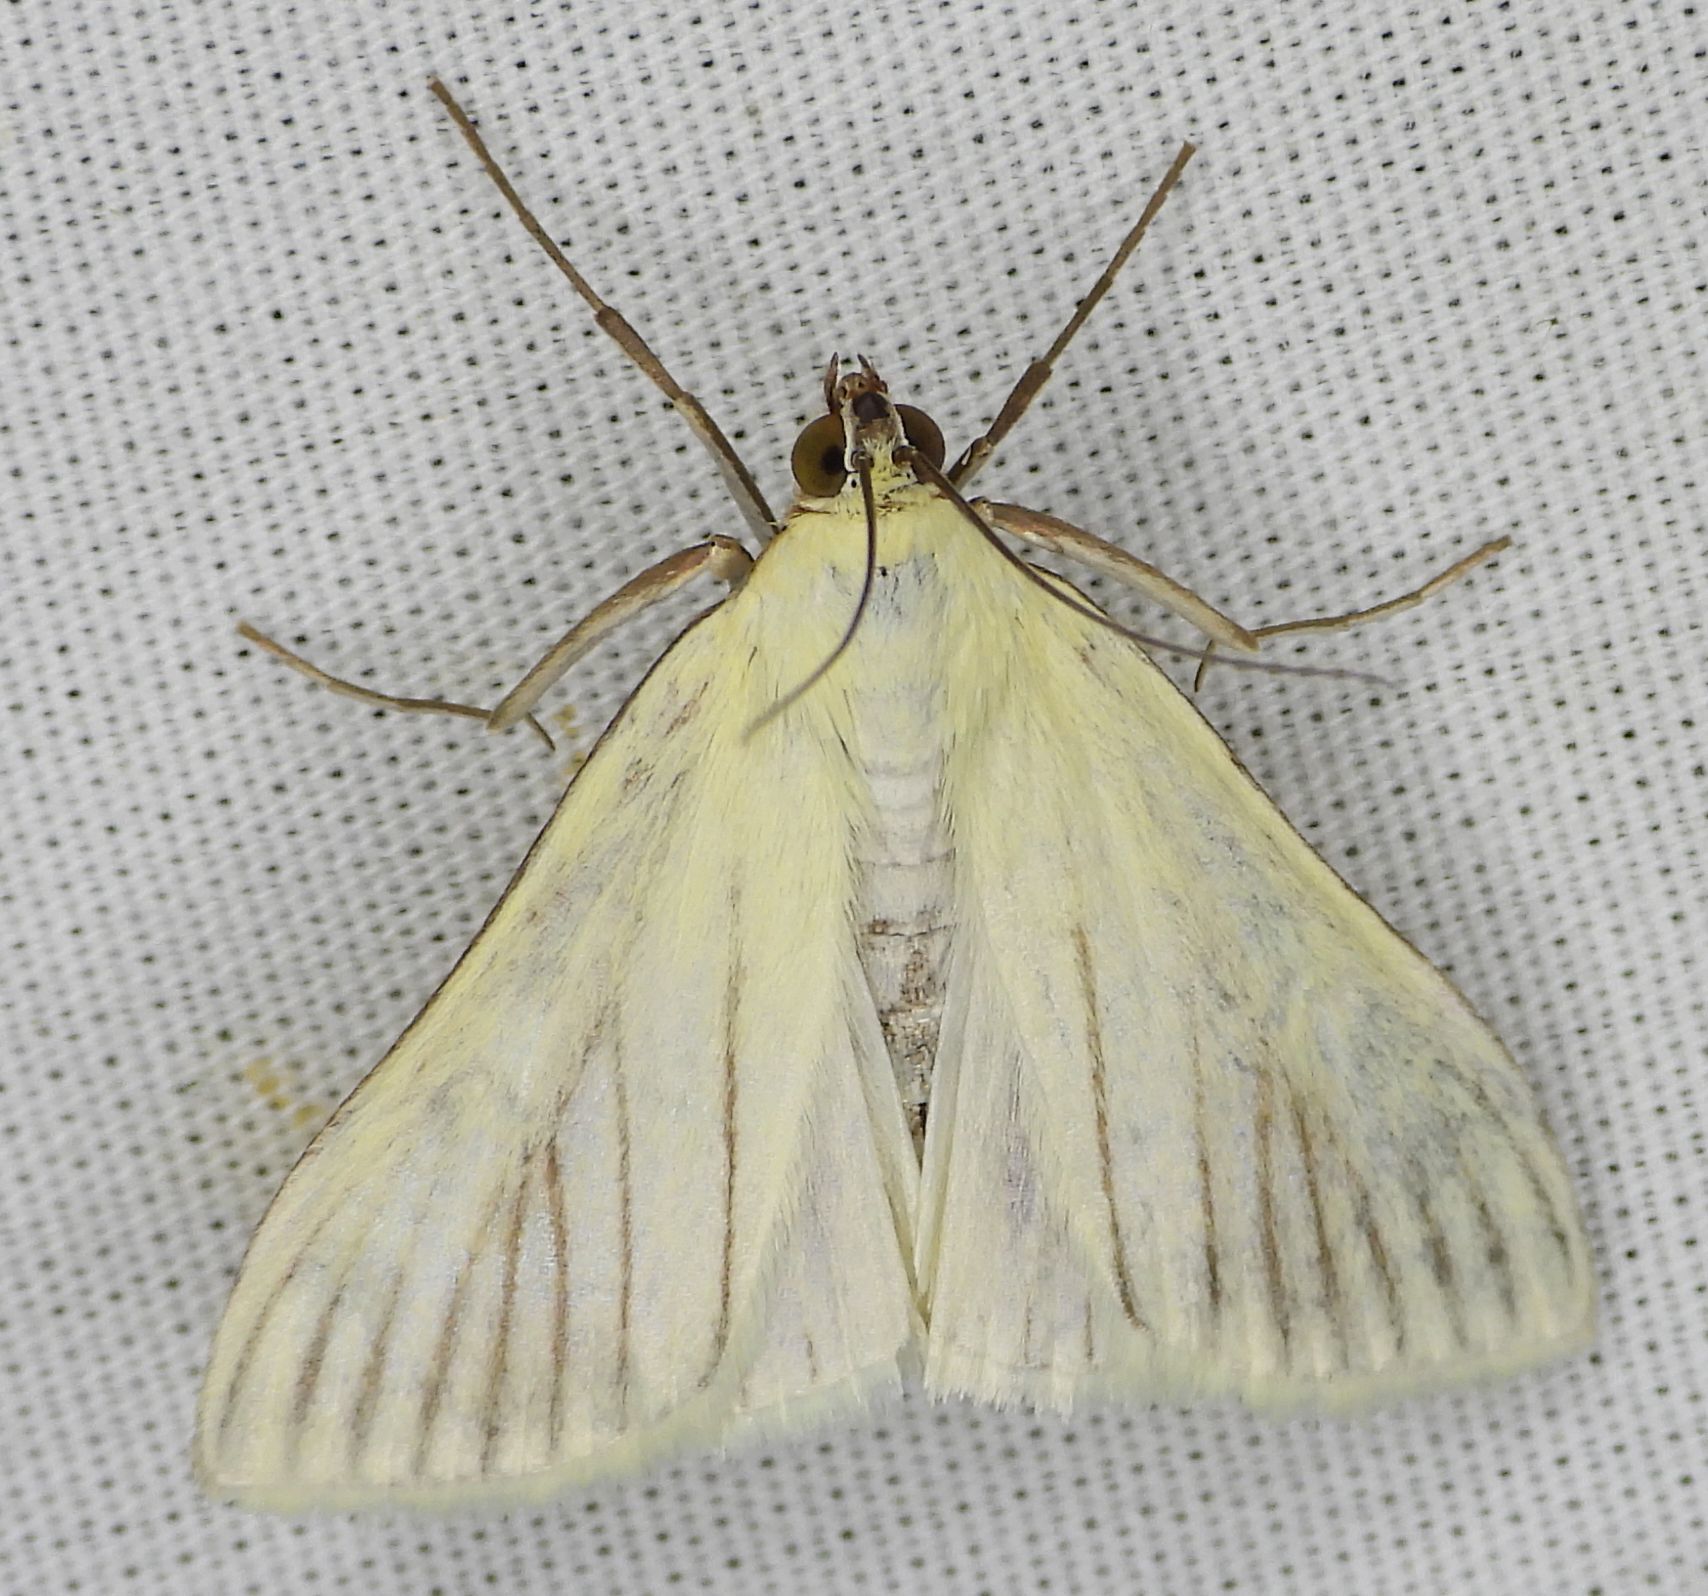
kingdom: Animalia
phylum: Arthropoda
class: Insecta
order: Lepidoptera
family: Crambidae
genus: Sitochroa
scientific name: Sitochroa palealis
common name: Greenish-yellow sitochroa moth
